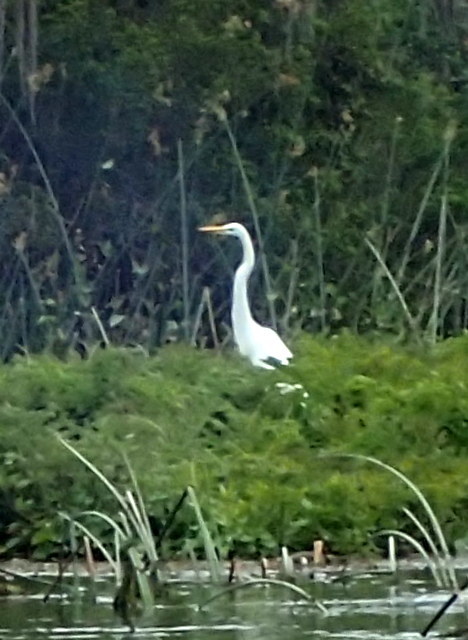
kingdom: Animalia
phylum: Chordata
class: Aves
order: Pelecaniformes
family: Ardeidae
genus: Ardea
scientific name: Ardea alba
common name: Great egret
